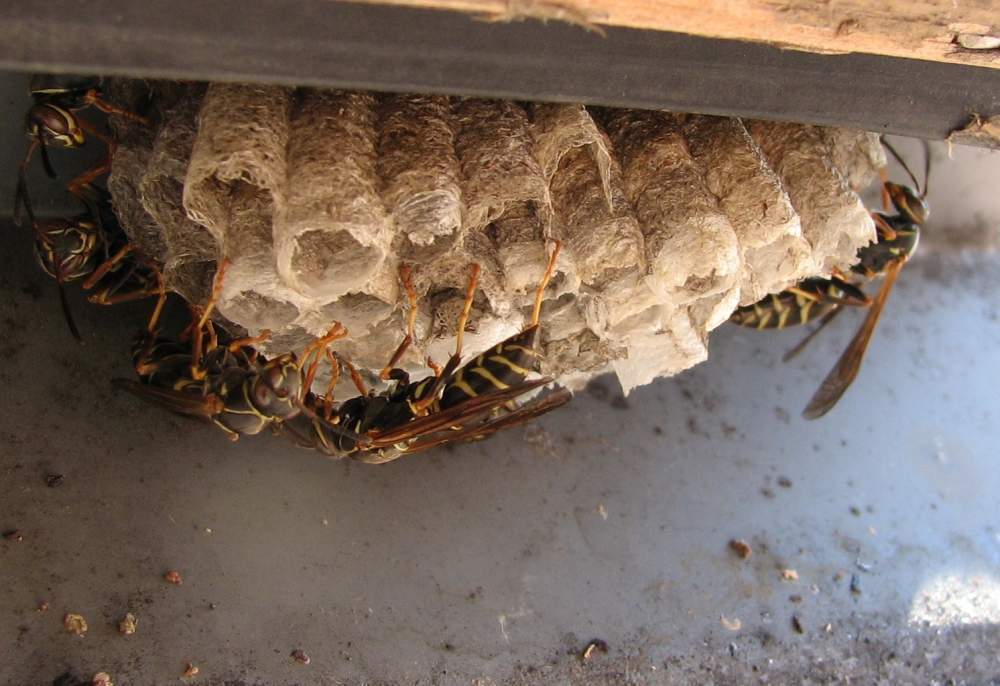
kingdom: Animalia
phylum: Arthropoda
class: Insecta
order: Hymenoptera
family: Eumenidae
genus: Polistes
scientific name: Polistes fuscatus
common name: Dark paper wasp
